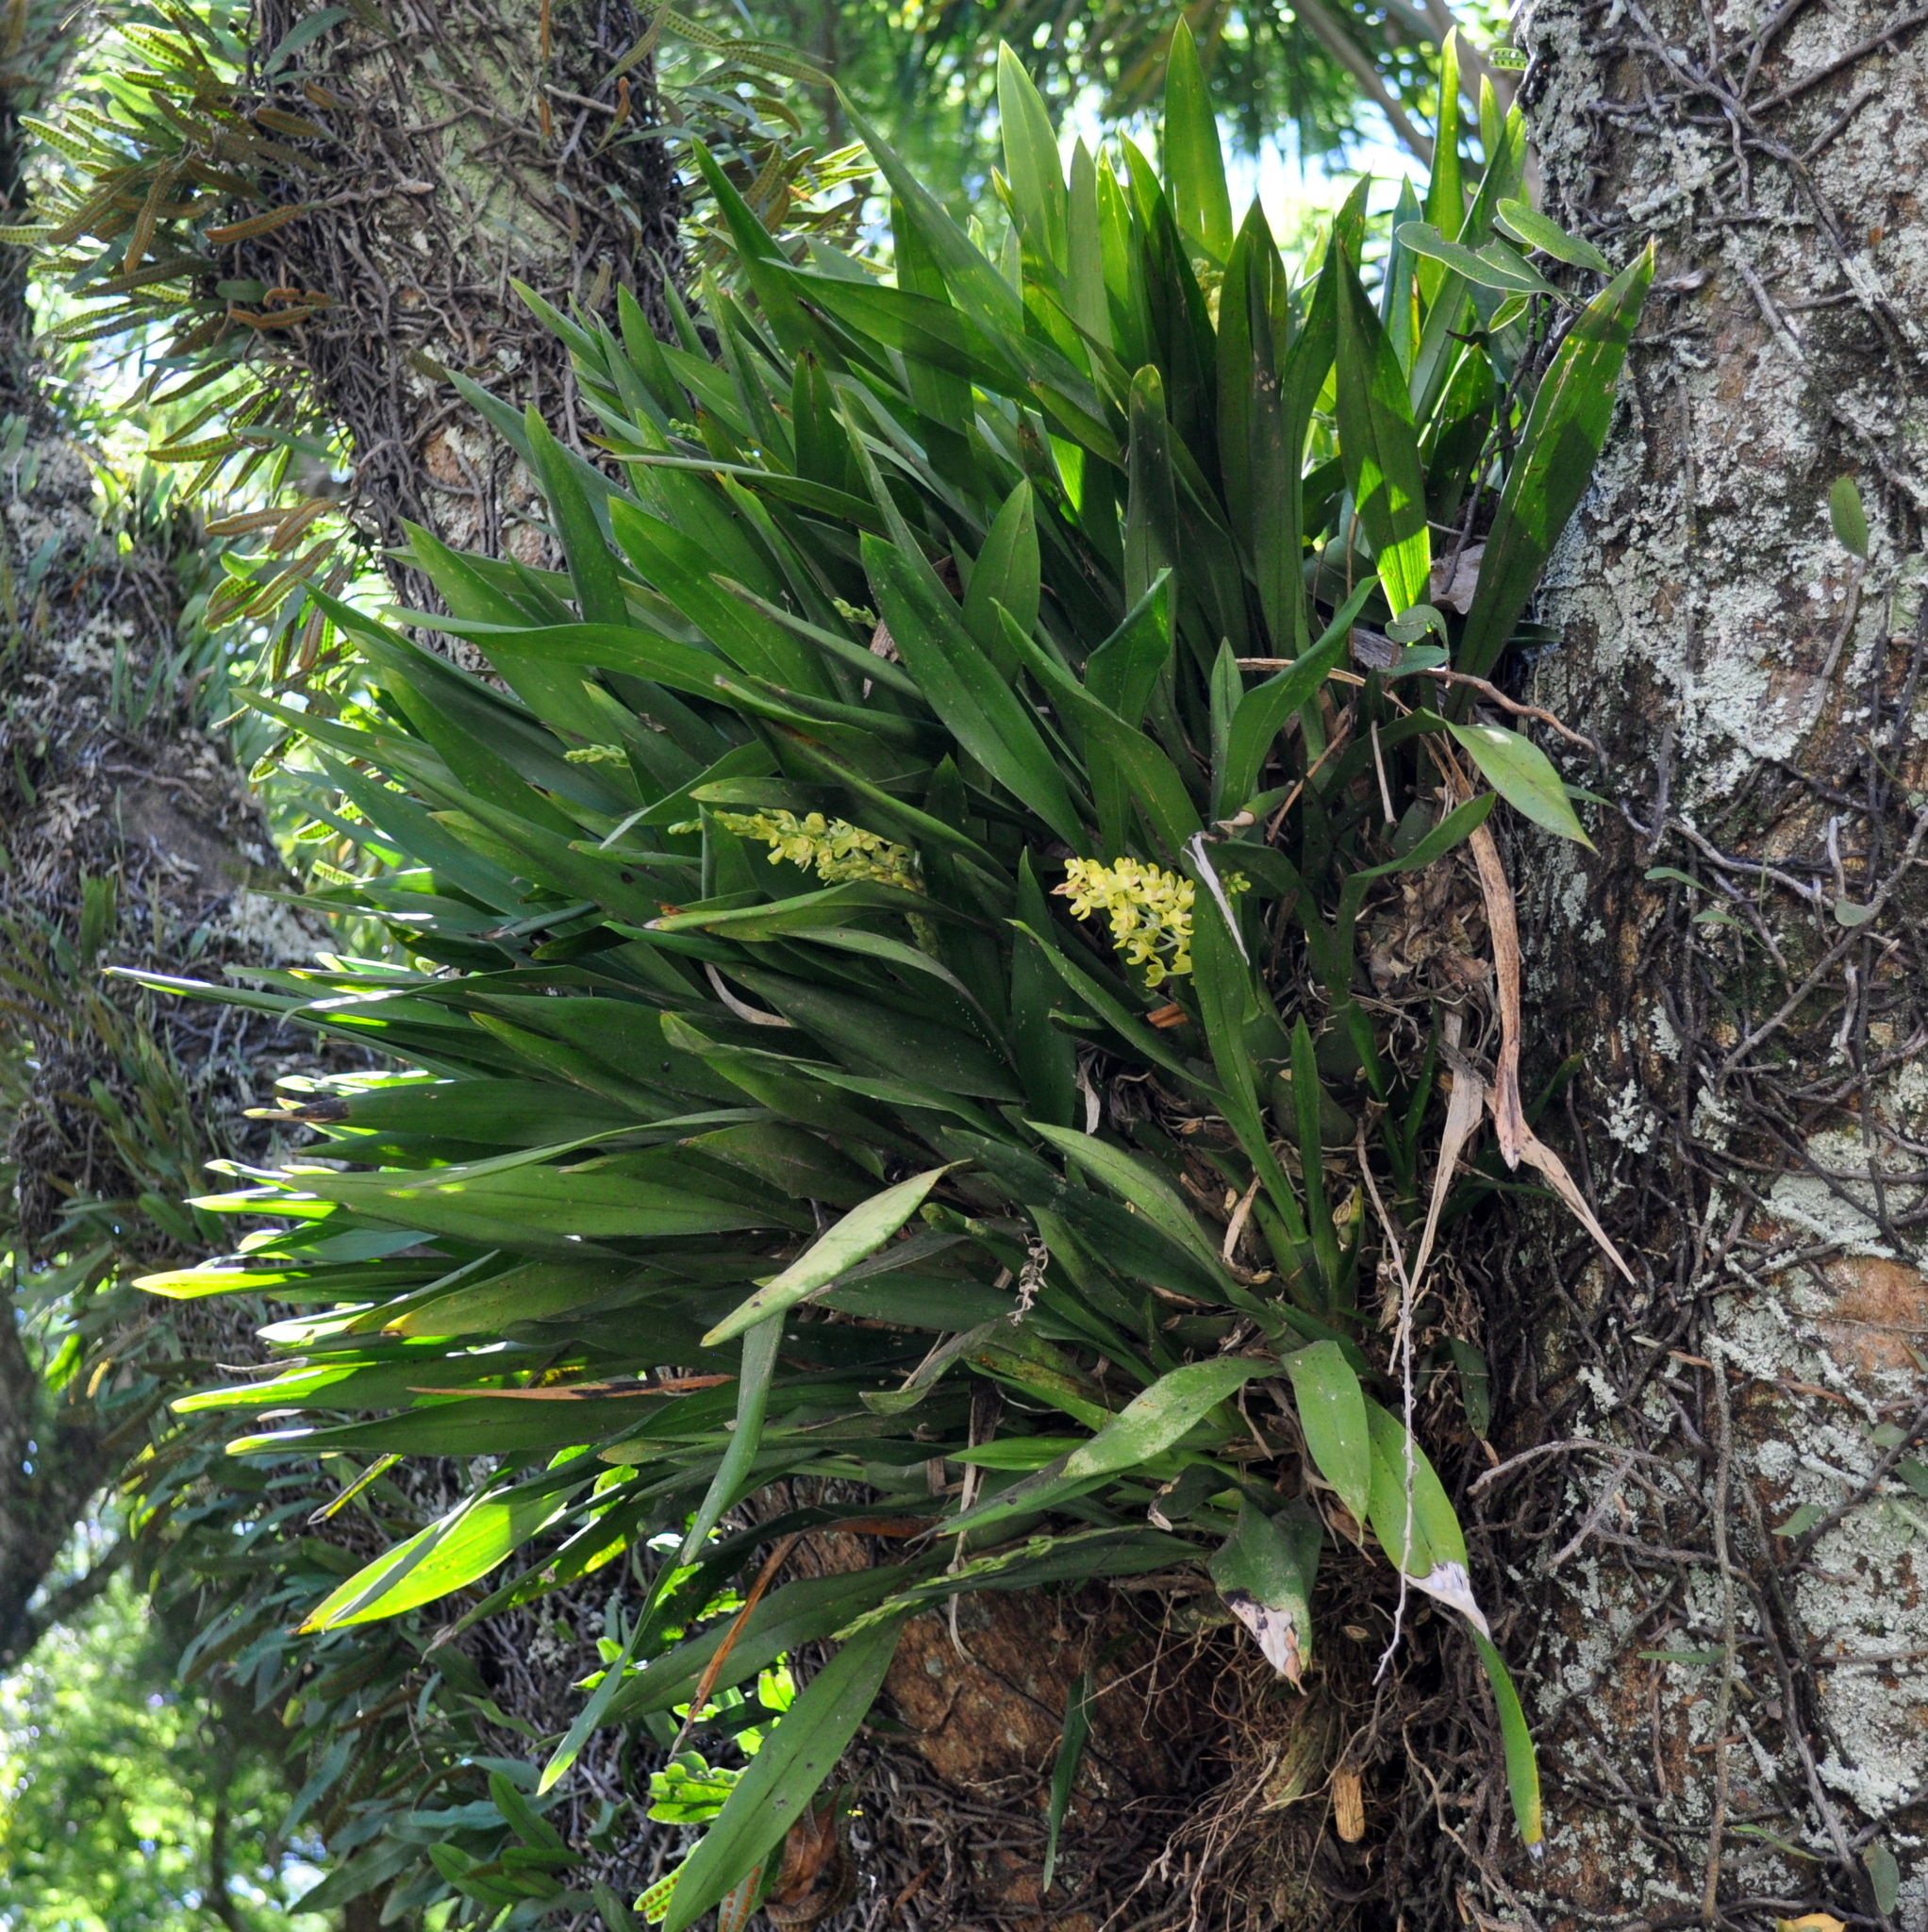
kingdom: Plantae
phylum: Tracheophyta
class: Liliopsida
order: Asparagales
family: Orchidaceae
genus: Gomesa
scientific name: Gomesa planifolia
